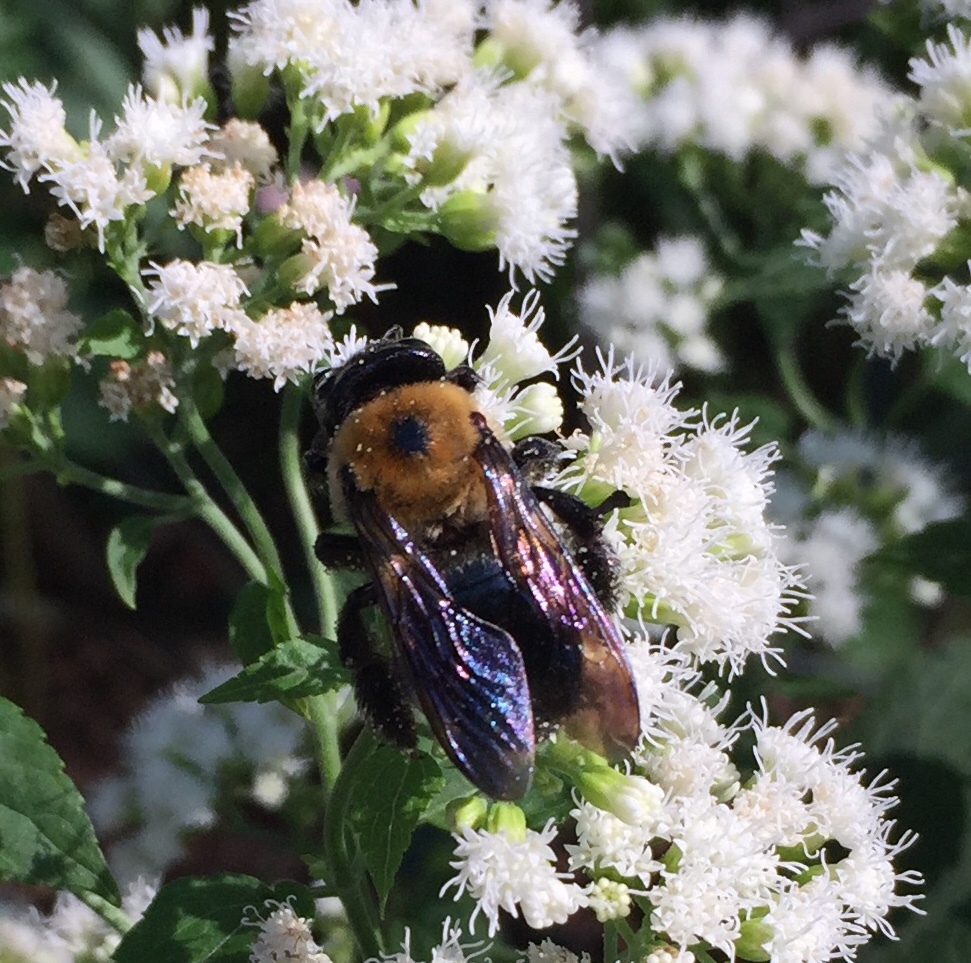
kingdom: Animalia
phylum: Arthropoda
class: Insecta
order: Hymenoptera
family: Apidae
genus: Xylocopa
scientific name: Xylocopa virginica
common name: Carpenter bee
